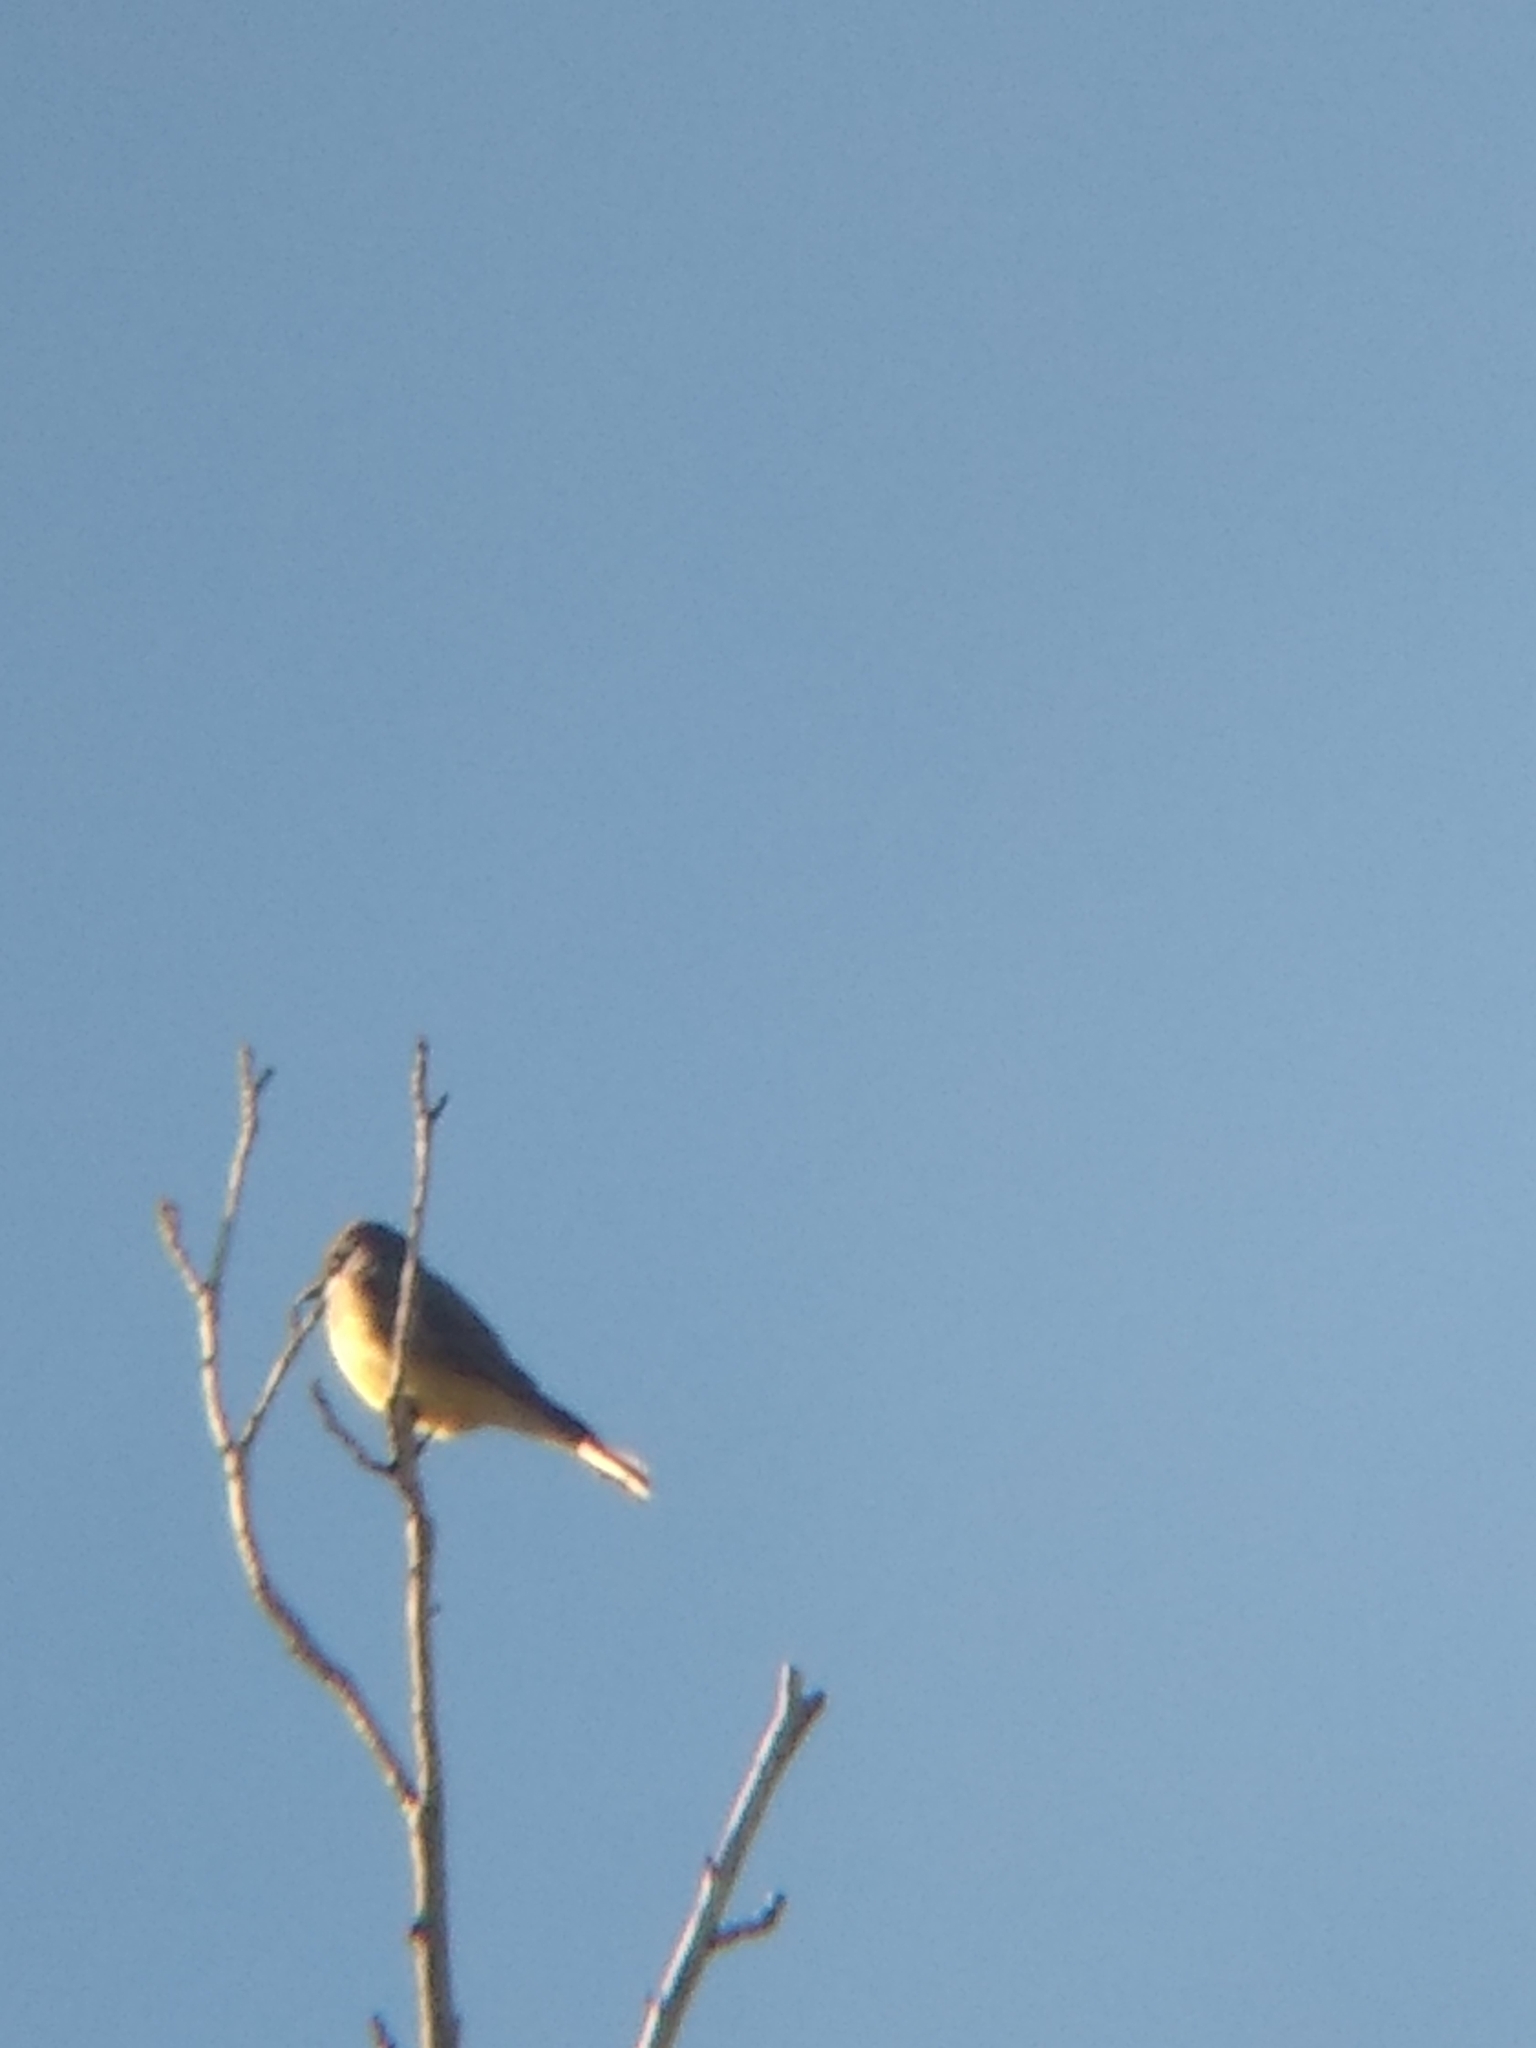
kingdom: Animalia
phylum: Chordata
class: Aves
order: Passeriformes
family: Tyrannidae
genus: Tyrannus
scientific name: Tyrannus vociferans
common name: Cassin's kingbird
